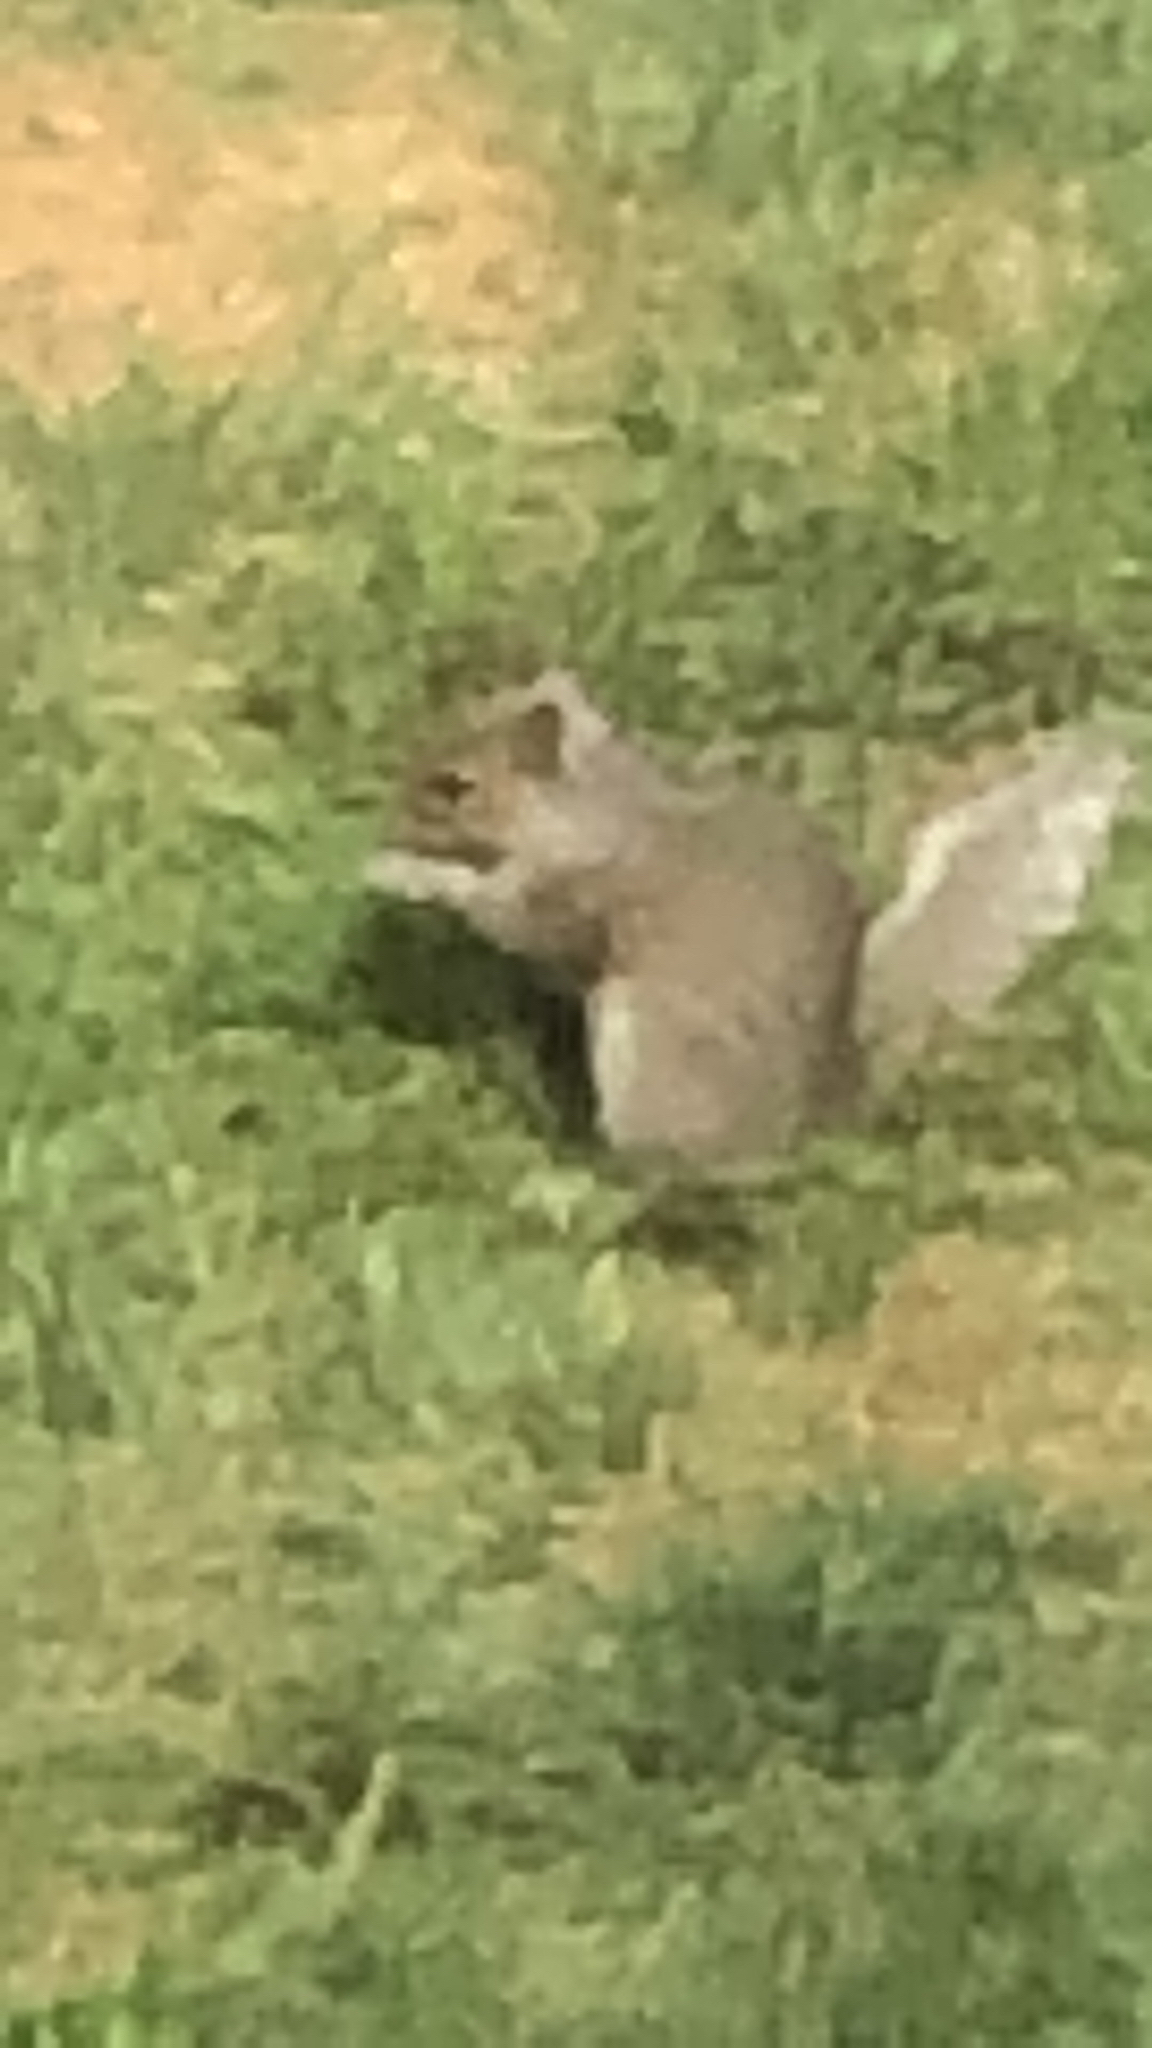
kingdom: Animalia
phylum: Chordata
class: Mammalia
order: Rodentia
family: Sciuridae
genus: Sciurus
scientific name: Sciurus carolinensis
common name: Eastern gray squirrel
